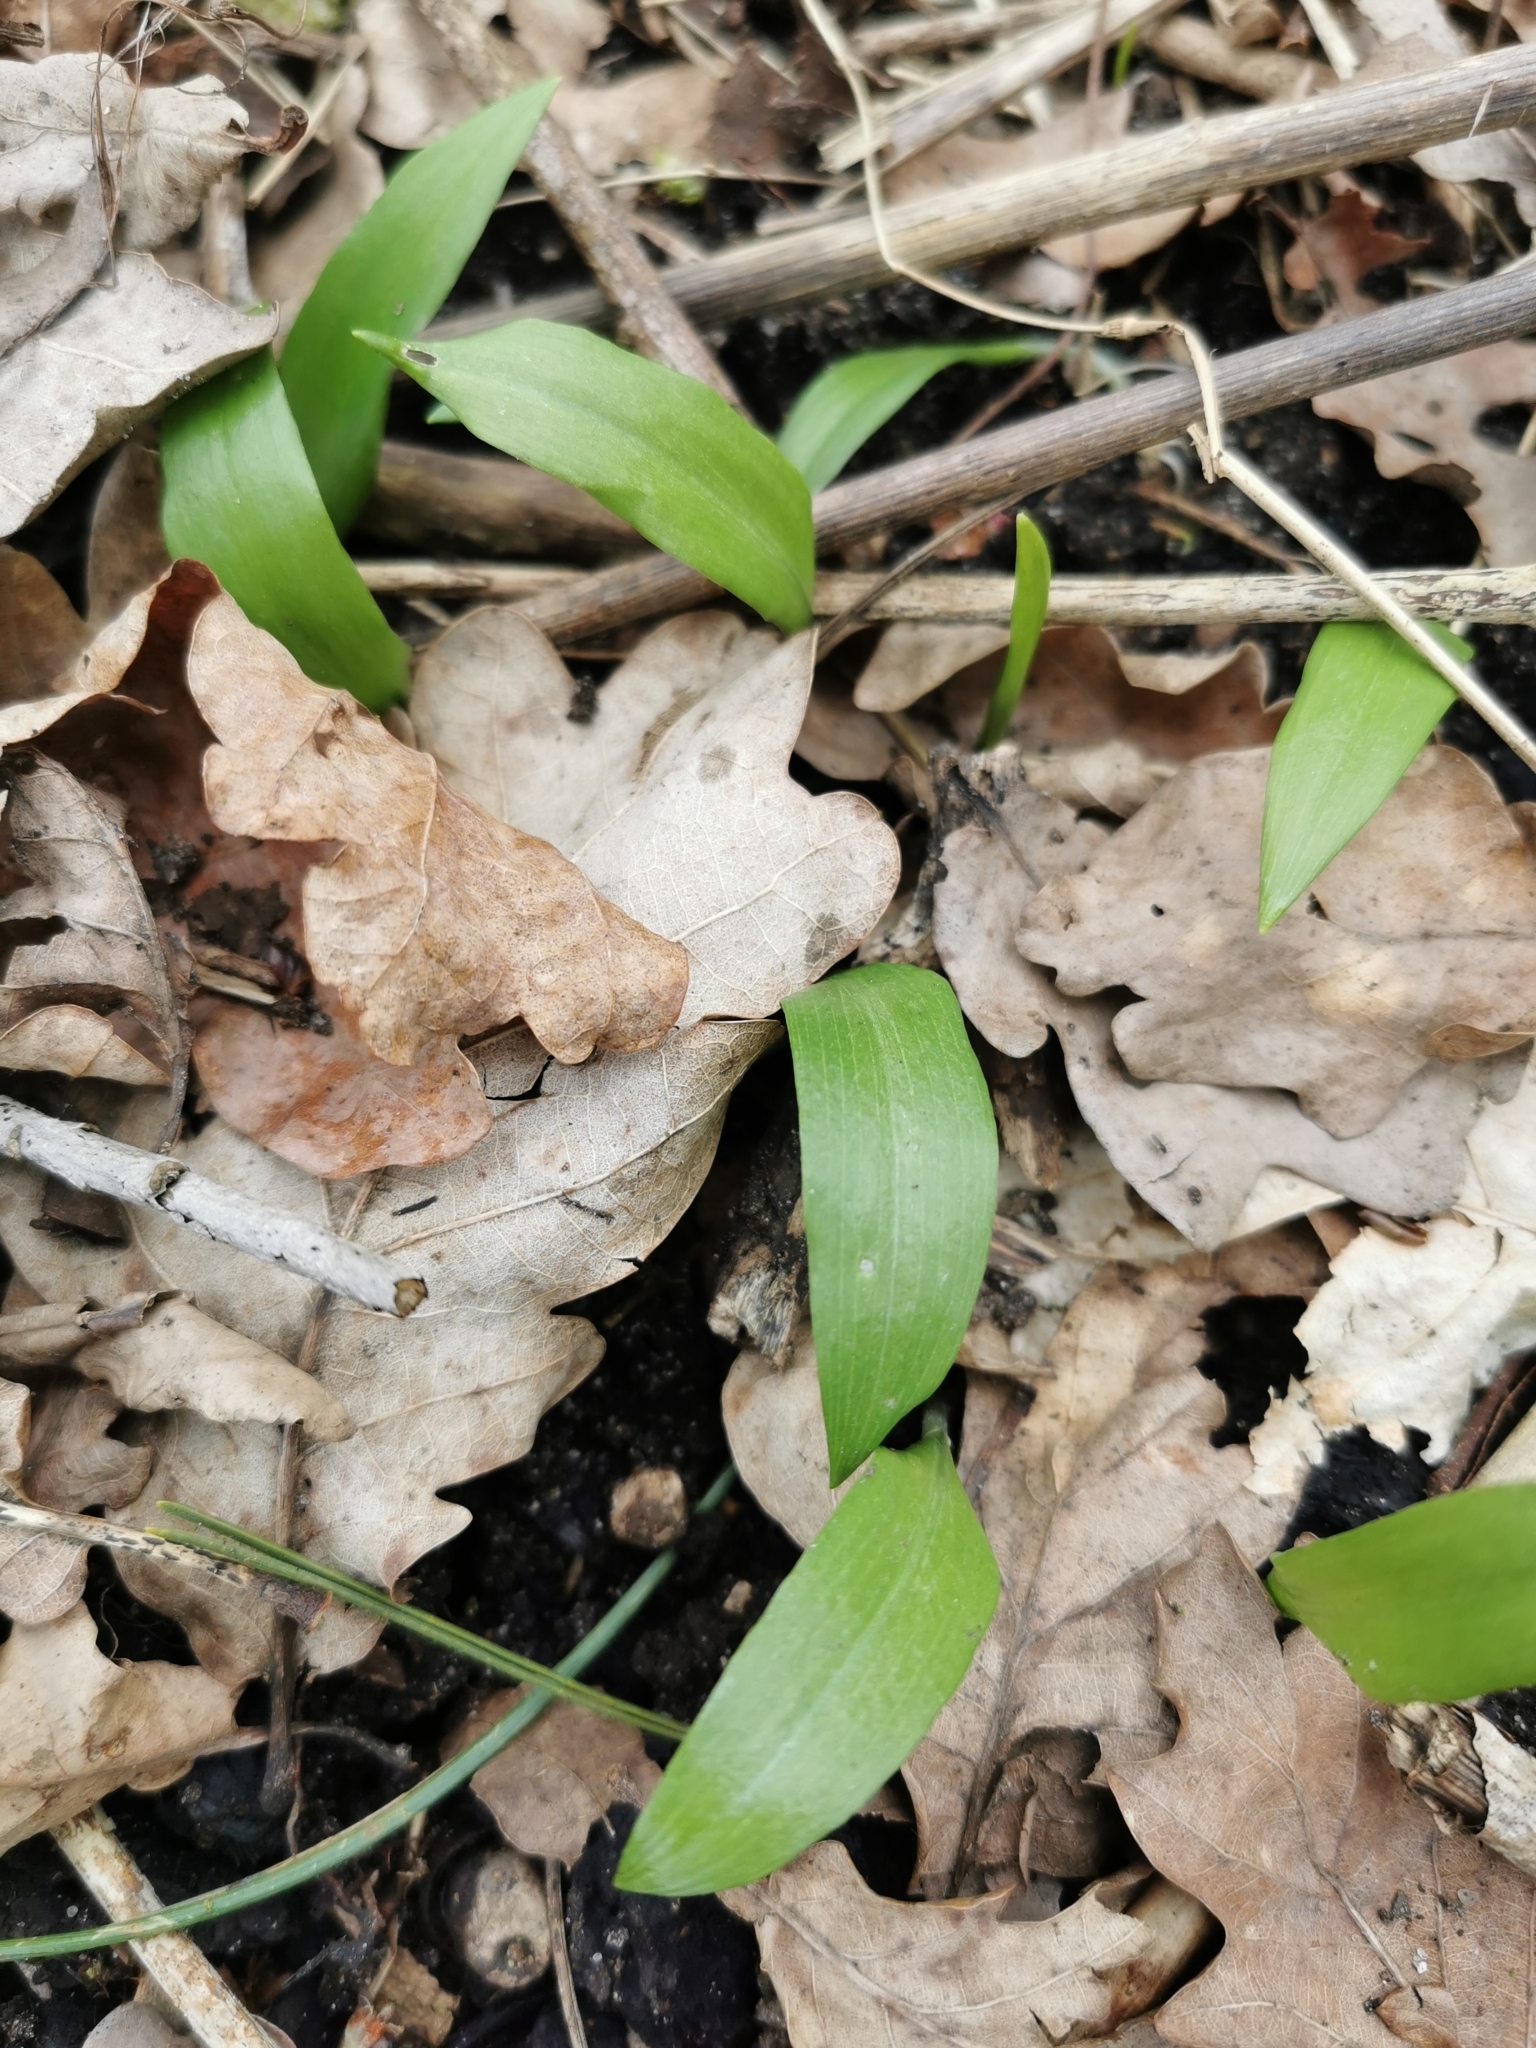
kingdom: Plantae
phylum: Tracheophyta
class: Liliopsida
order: Asparagales
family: Amaryllidaceae
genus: Allium
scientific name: Allium ursinum
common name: Ramsons
